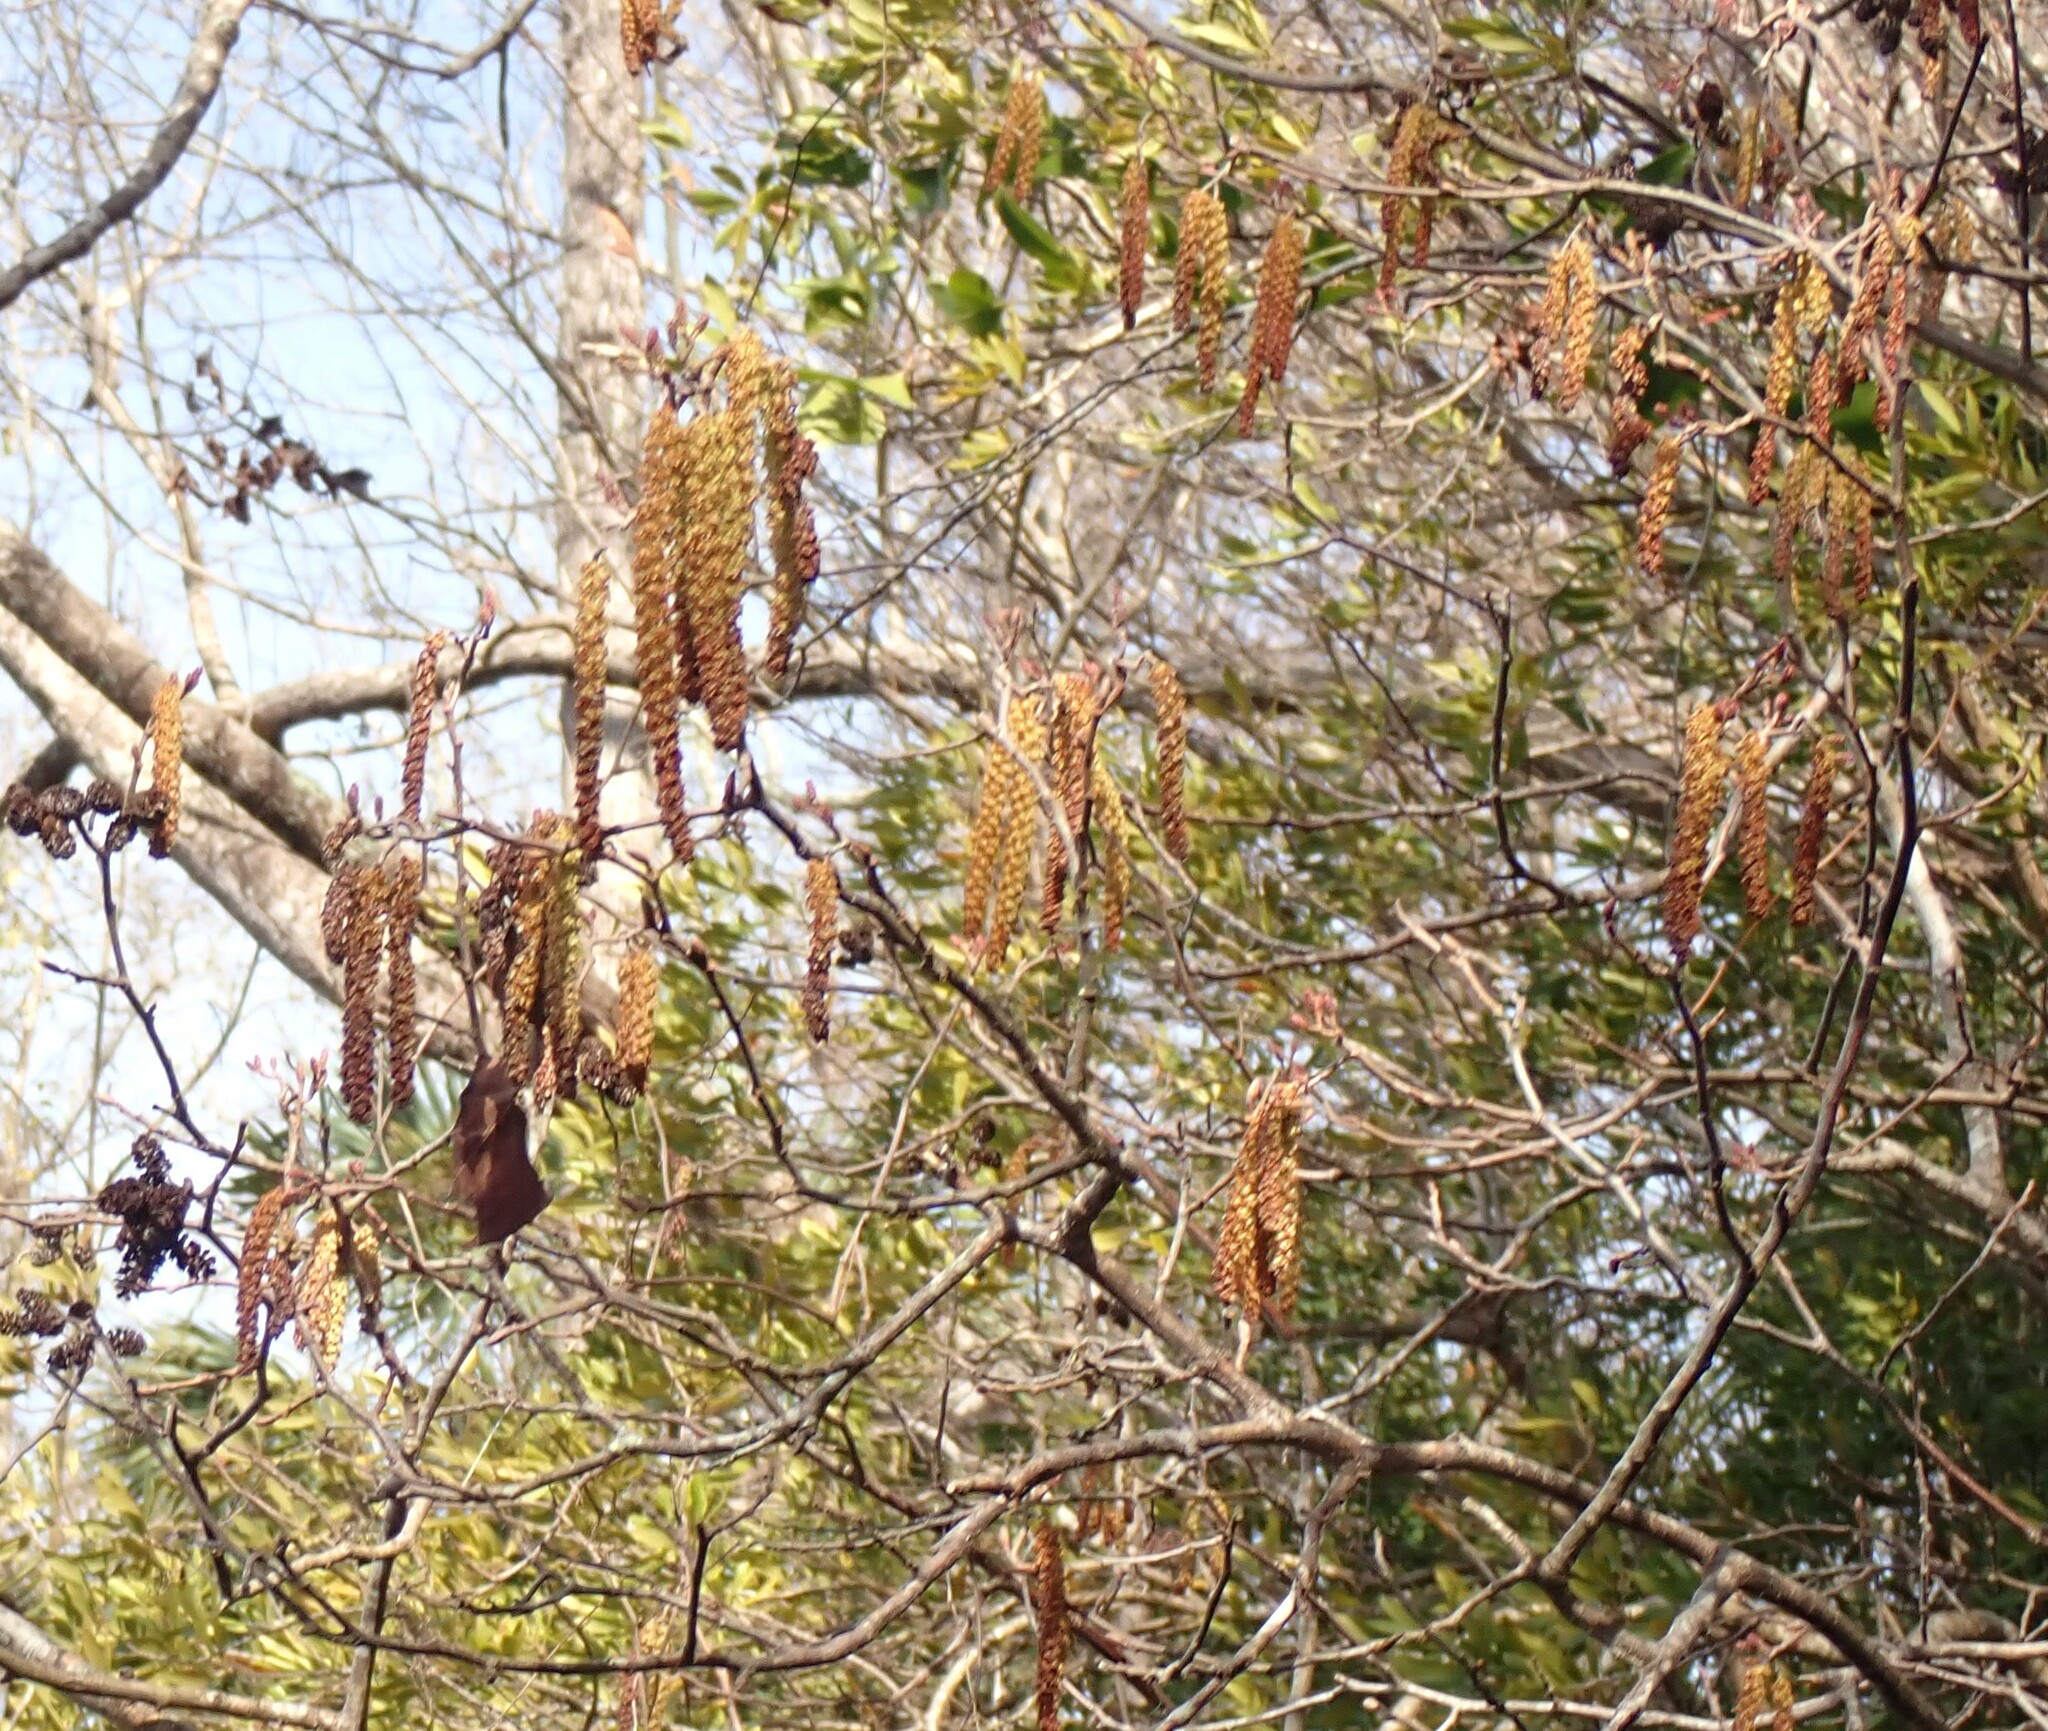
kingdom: Plantae
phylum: Tracheophyta
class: Magnoliopsida
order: Fagales
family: Betulaceae
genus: Alnus
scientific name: Alnus serrulata
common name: Hazel alder
